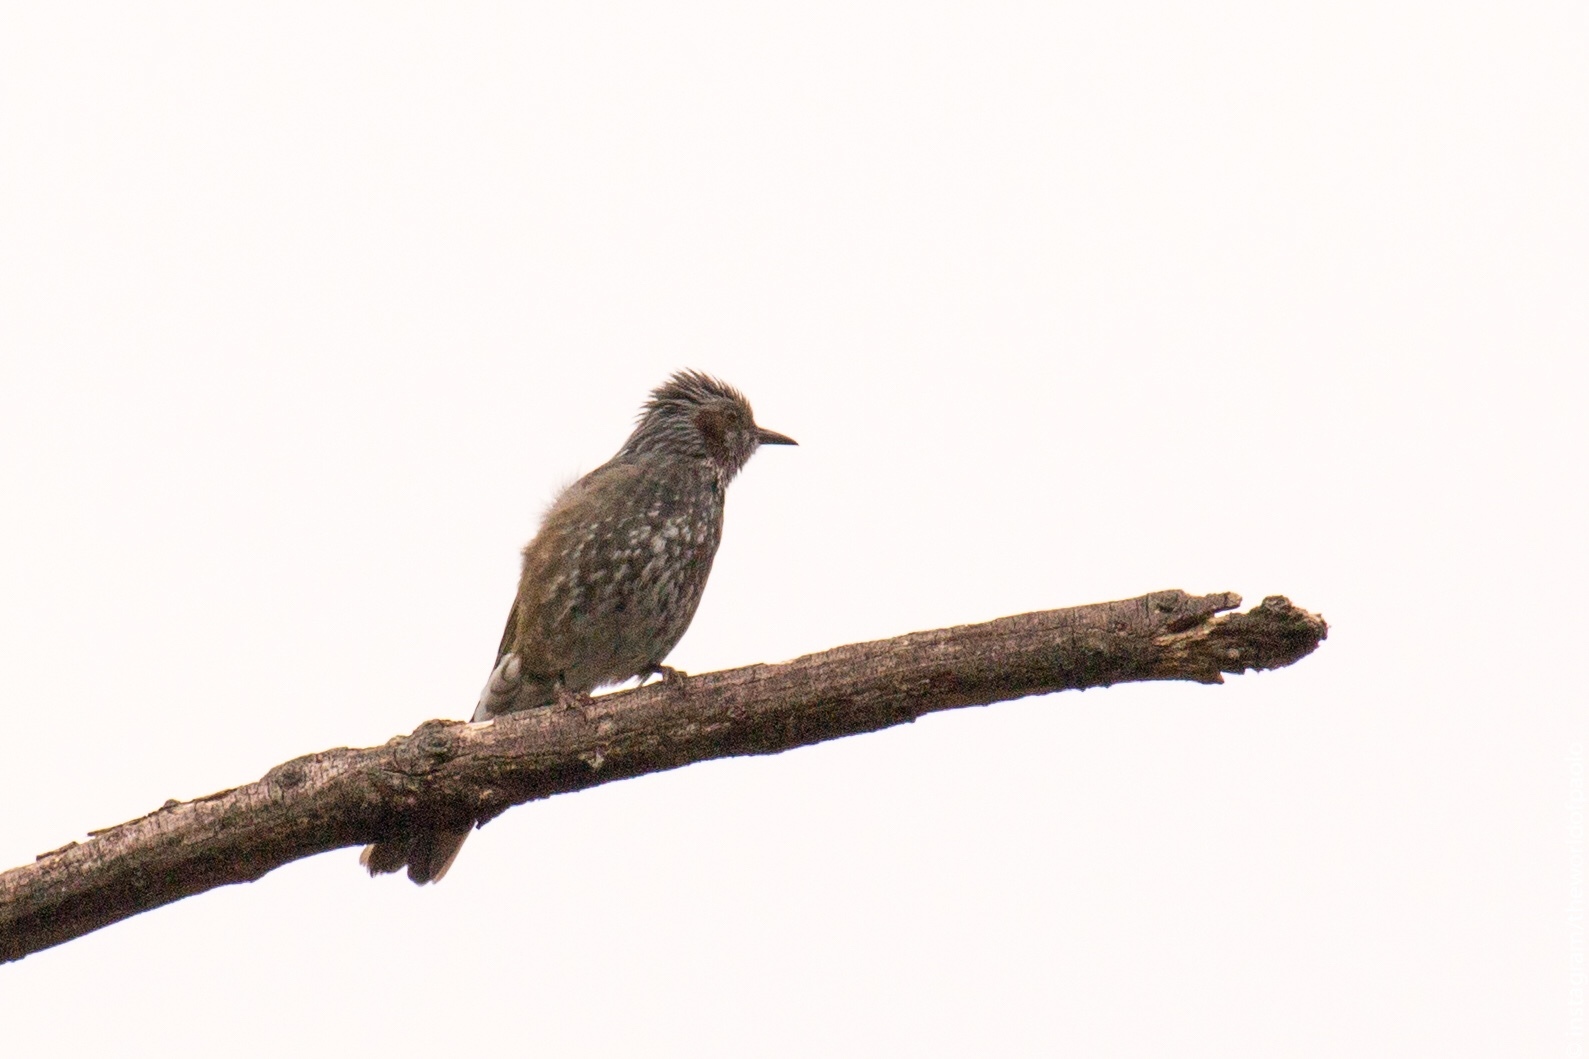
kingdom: Animalia
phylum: Chordata
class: Aves
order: Passeriformes
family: Pycnonotidae
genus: Hypsipetes
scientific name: Hypsipetes amaurotis
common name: Brown-eared bulbul
